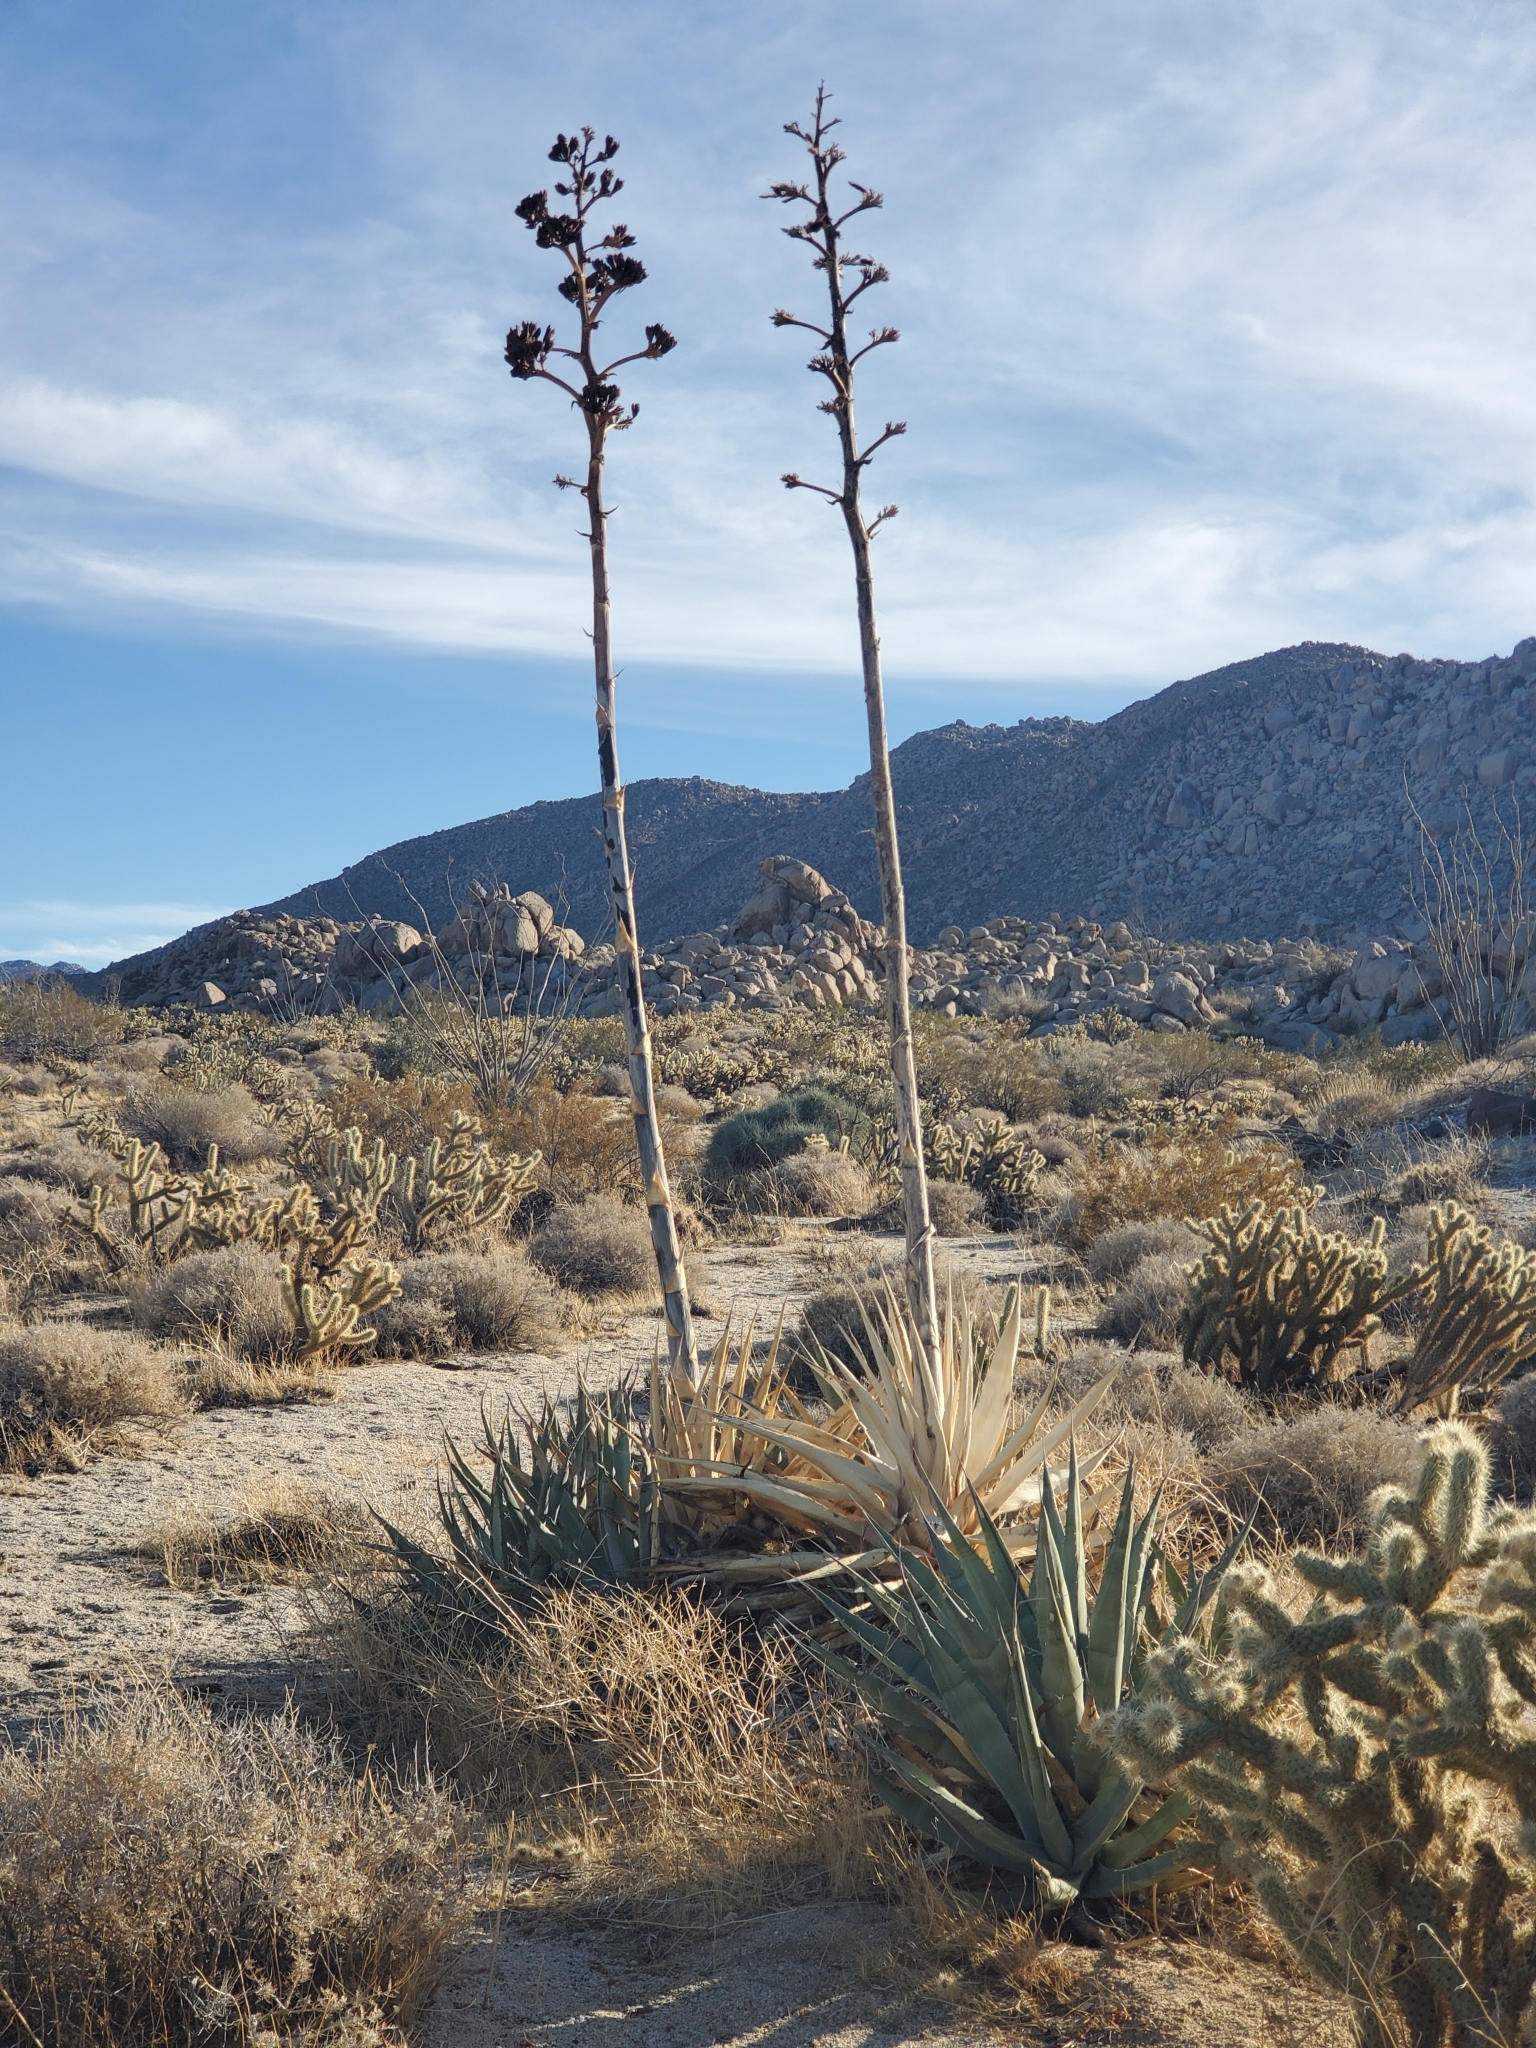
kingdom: Plantae
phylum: Tracheophyta
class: Liliopsida
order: Asparagales
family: Asparagaceae
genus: Agave
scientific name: Agave deserti
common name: Desert agave
